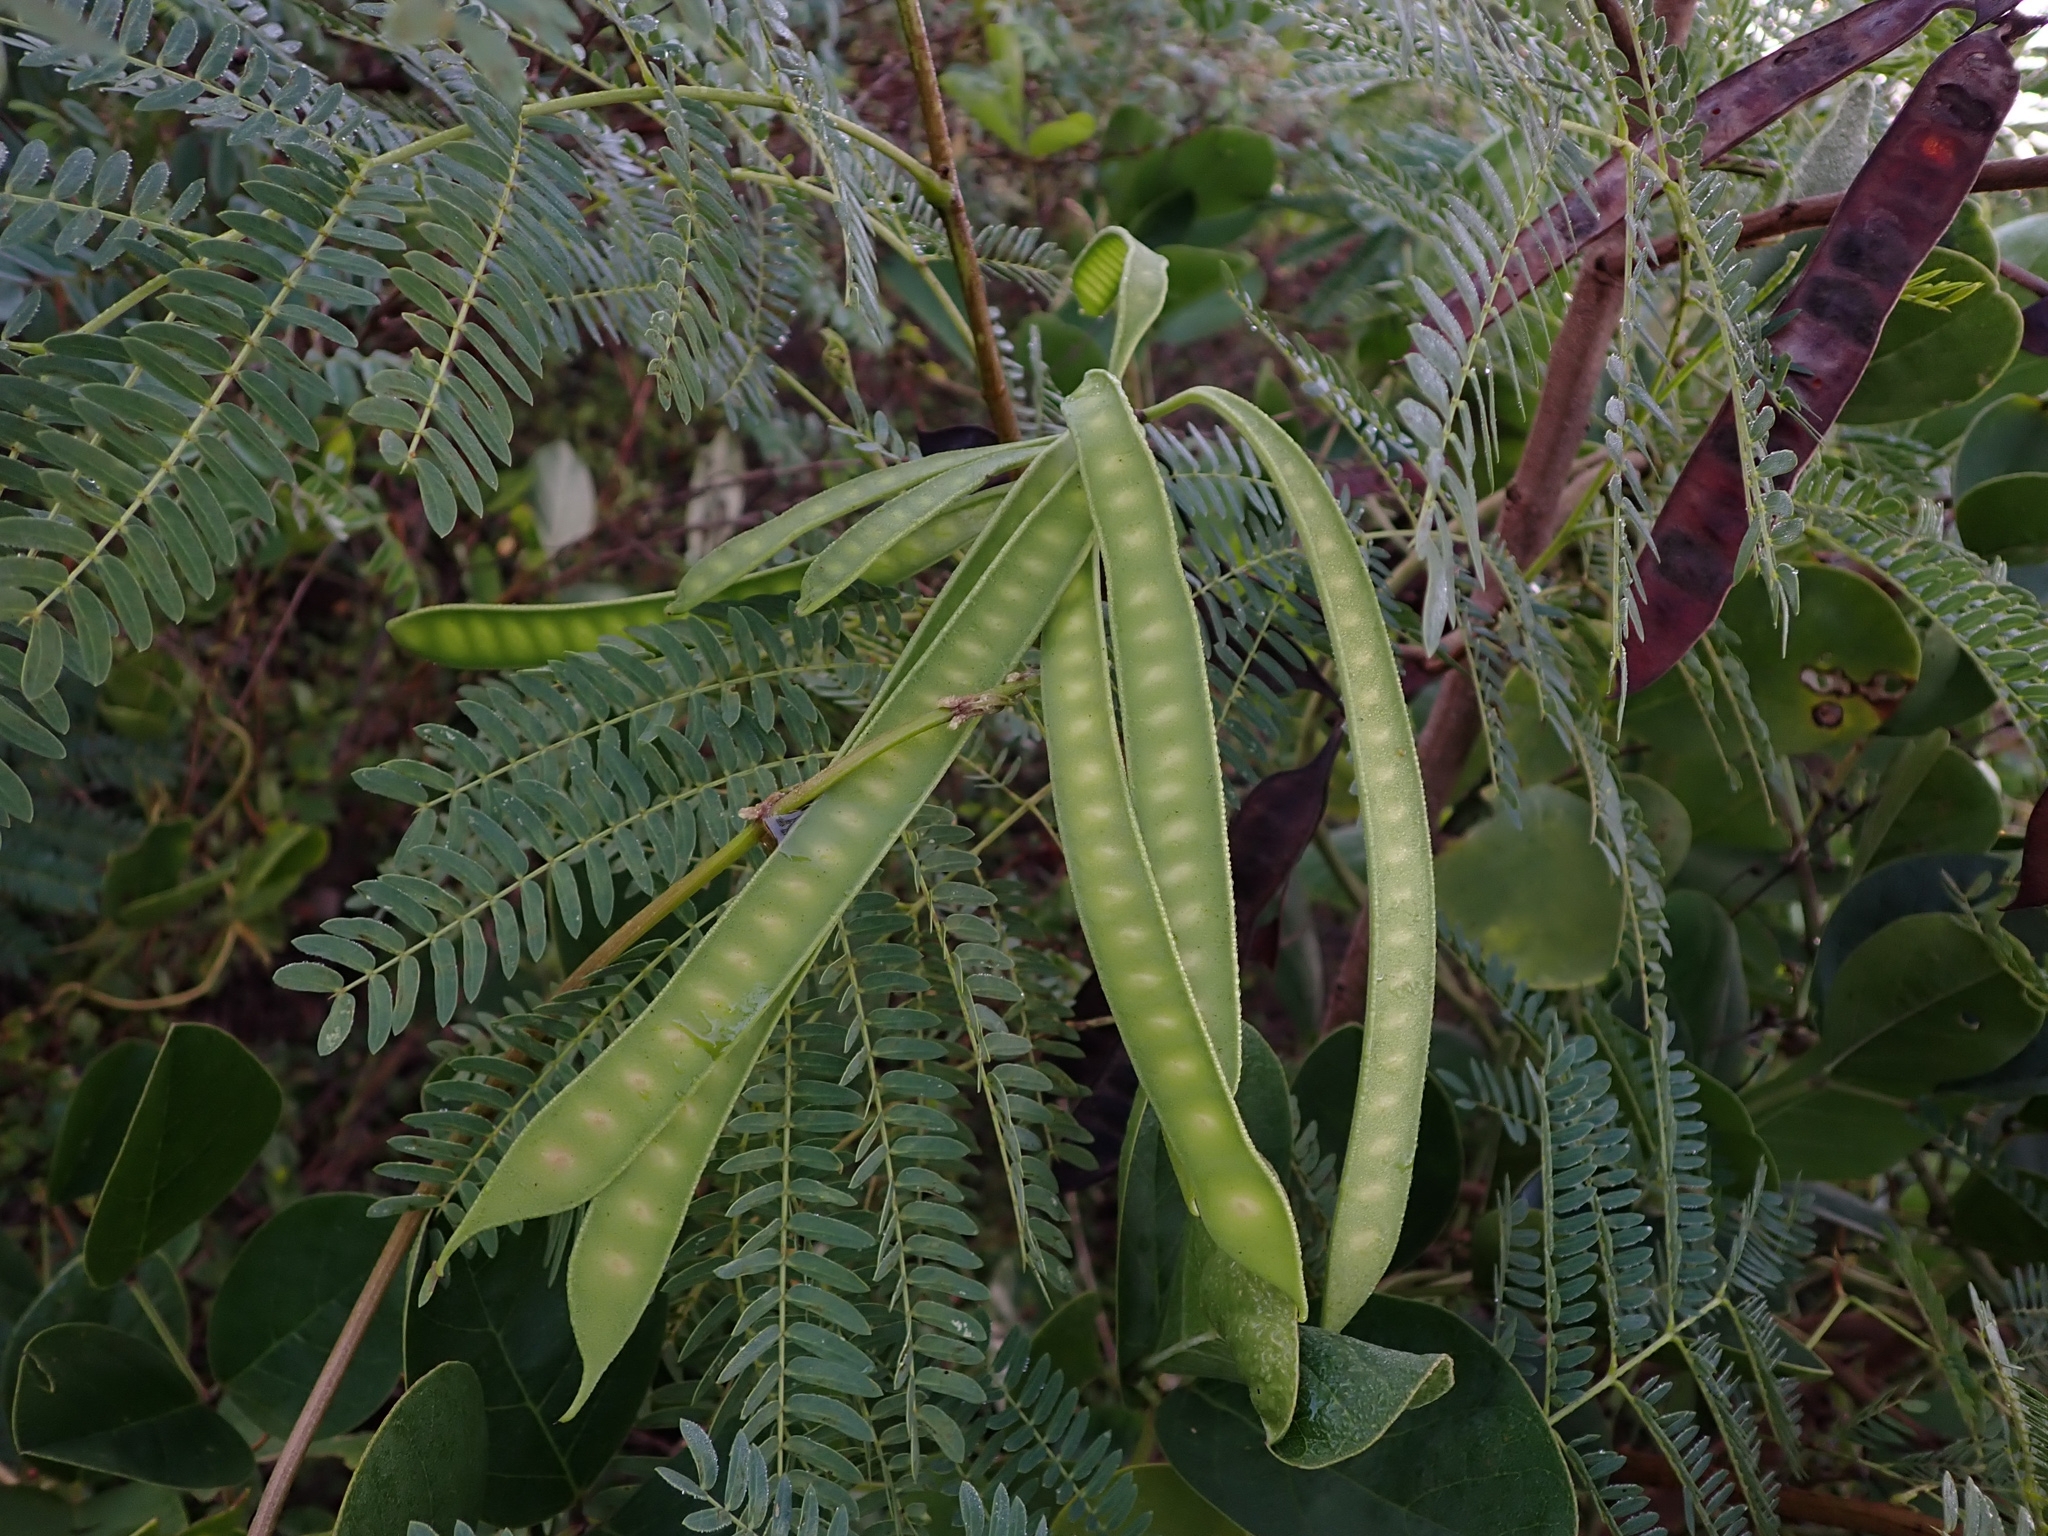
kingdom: Plantae
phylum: Tracheophyta
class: Magnoliopsida
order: Fabales
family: Fabaceae
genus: Leucaena
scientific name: Leucaena leucocephala
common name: White leadtree
